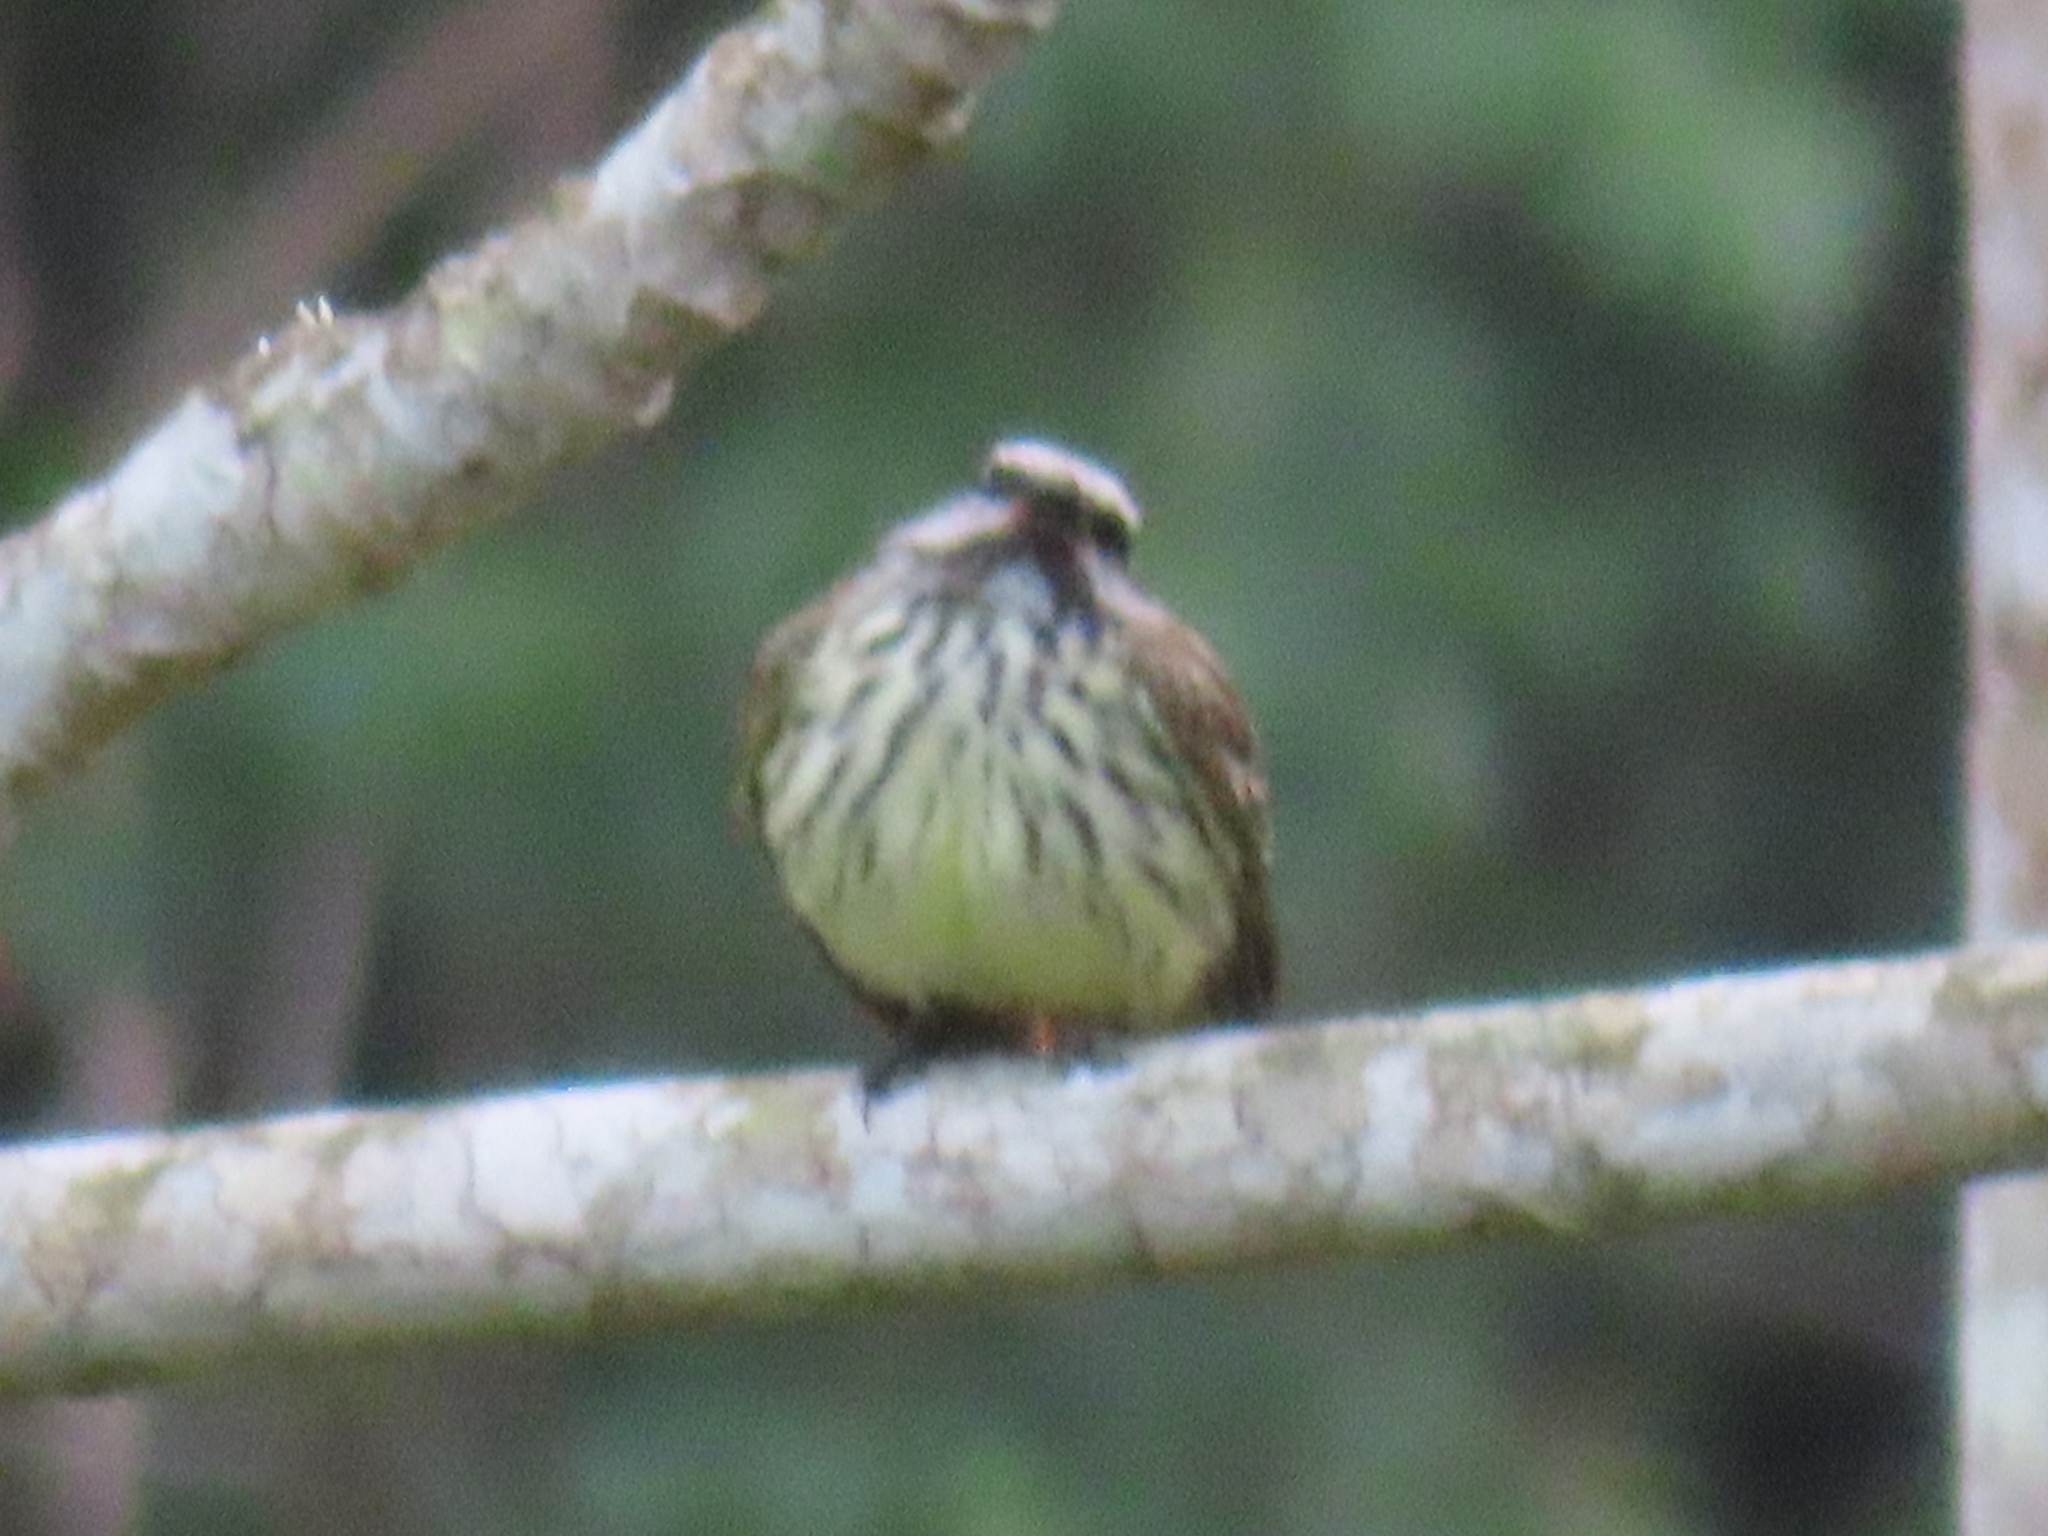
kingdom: Animalia
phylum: Chordata
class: Aves
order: Passeriformes
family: Tyrannidae
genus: Myiodynastes
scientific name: Myiodynastes luteiventris
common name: Sulphur-bellied flycatcher
